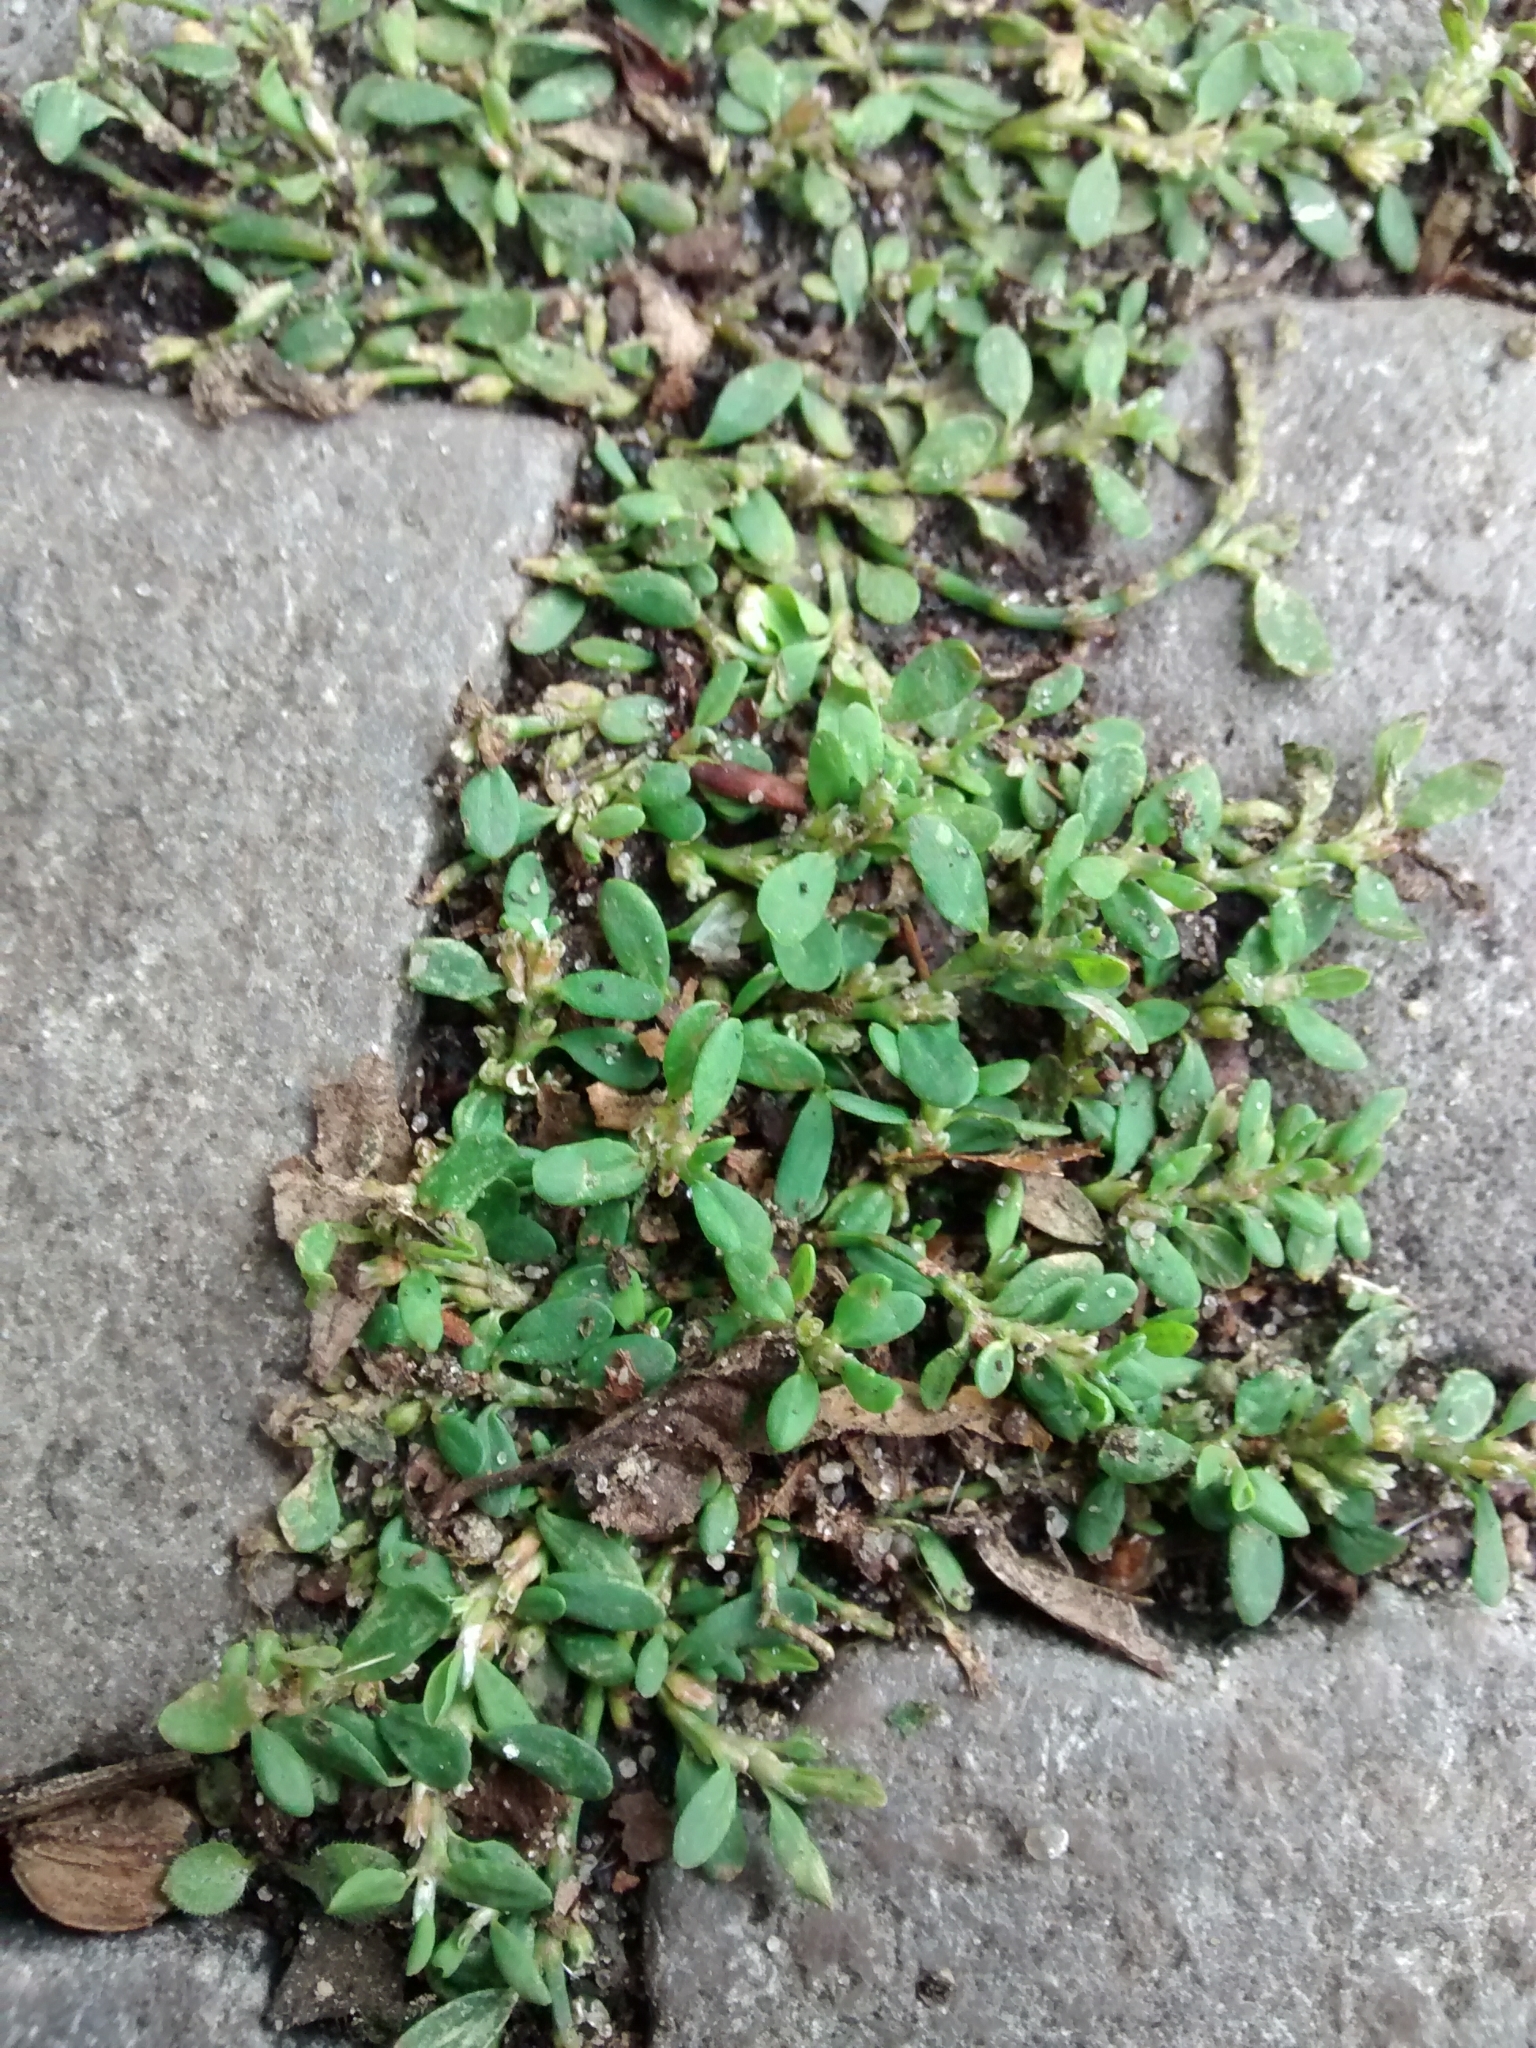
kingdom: Plantae
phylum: Tracheophyta
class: Magnoliopsida
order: Caryophyllales
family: Polygonaceae
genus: Polygonum
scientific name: Polygonum aviculare
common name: Prostrate knotweed
